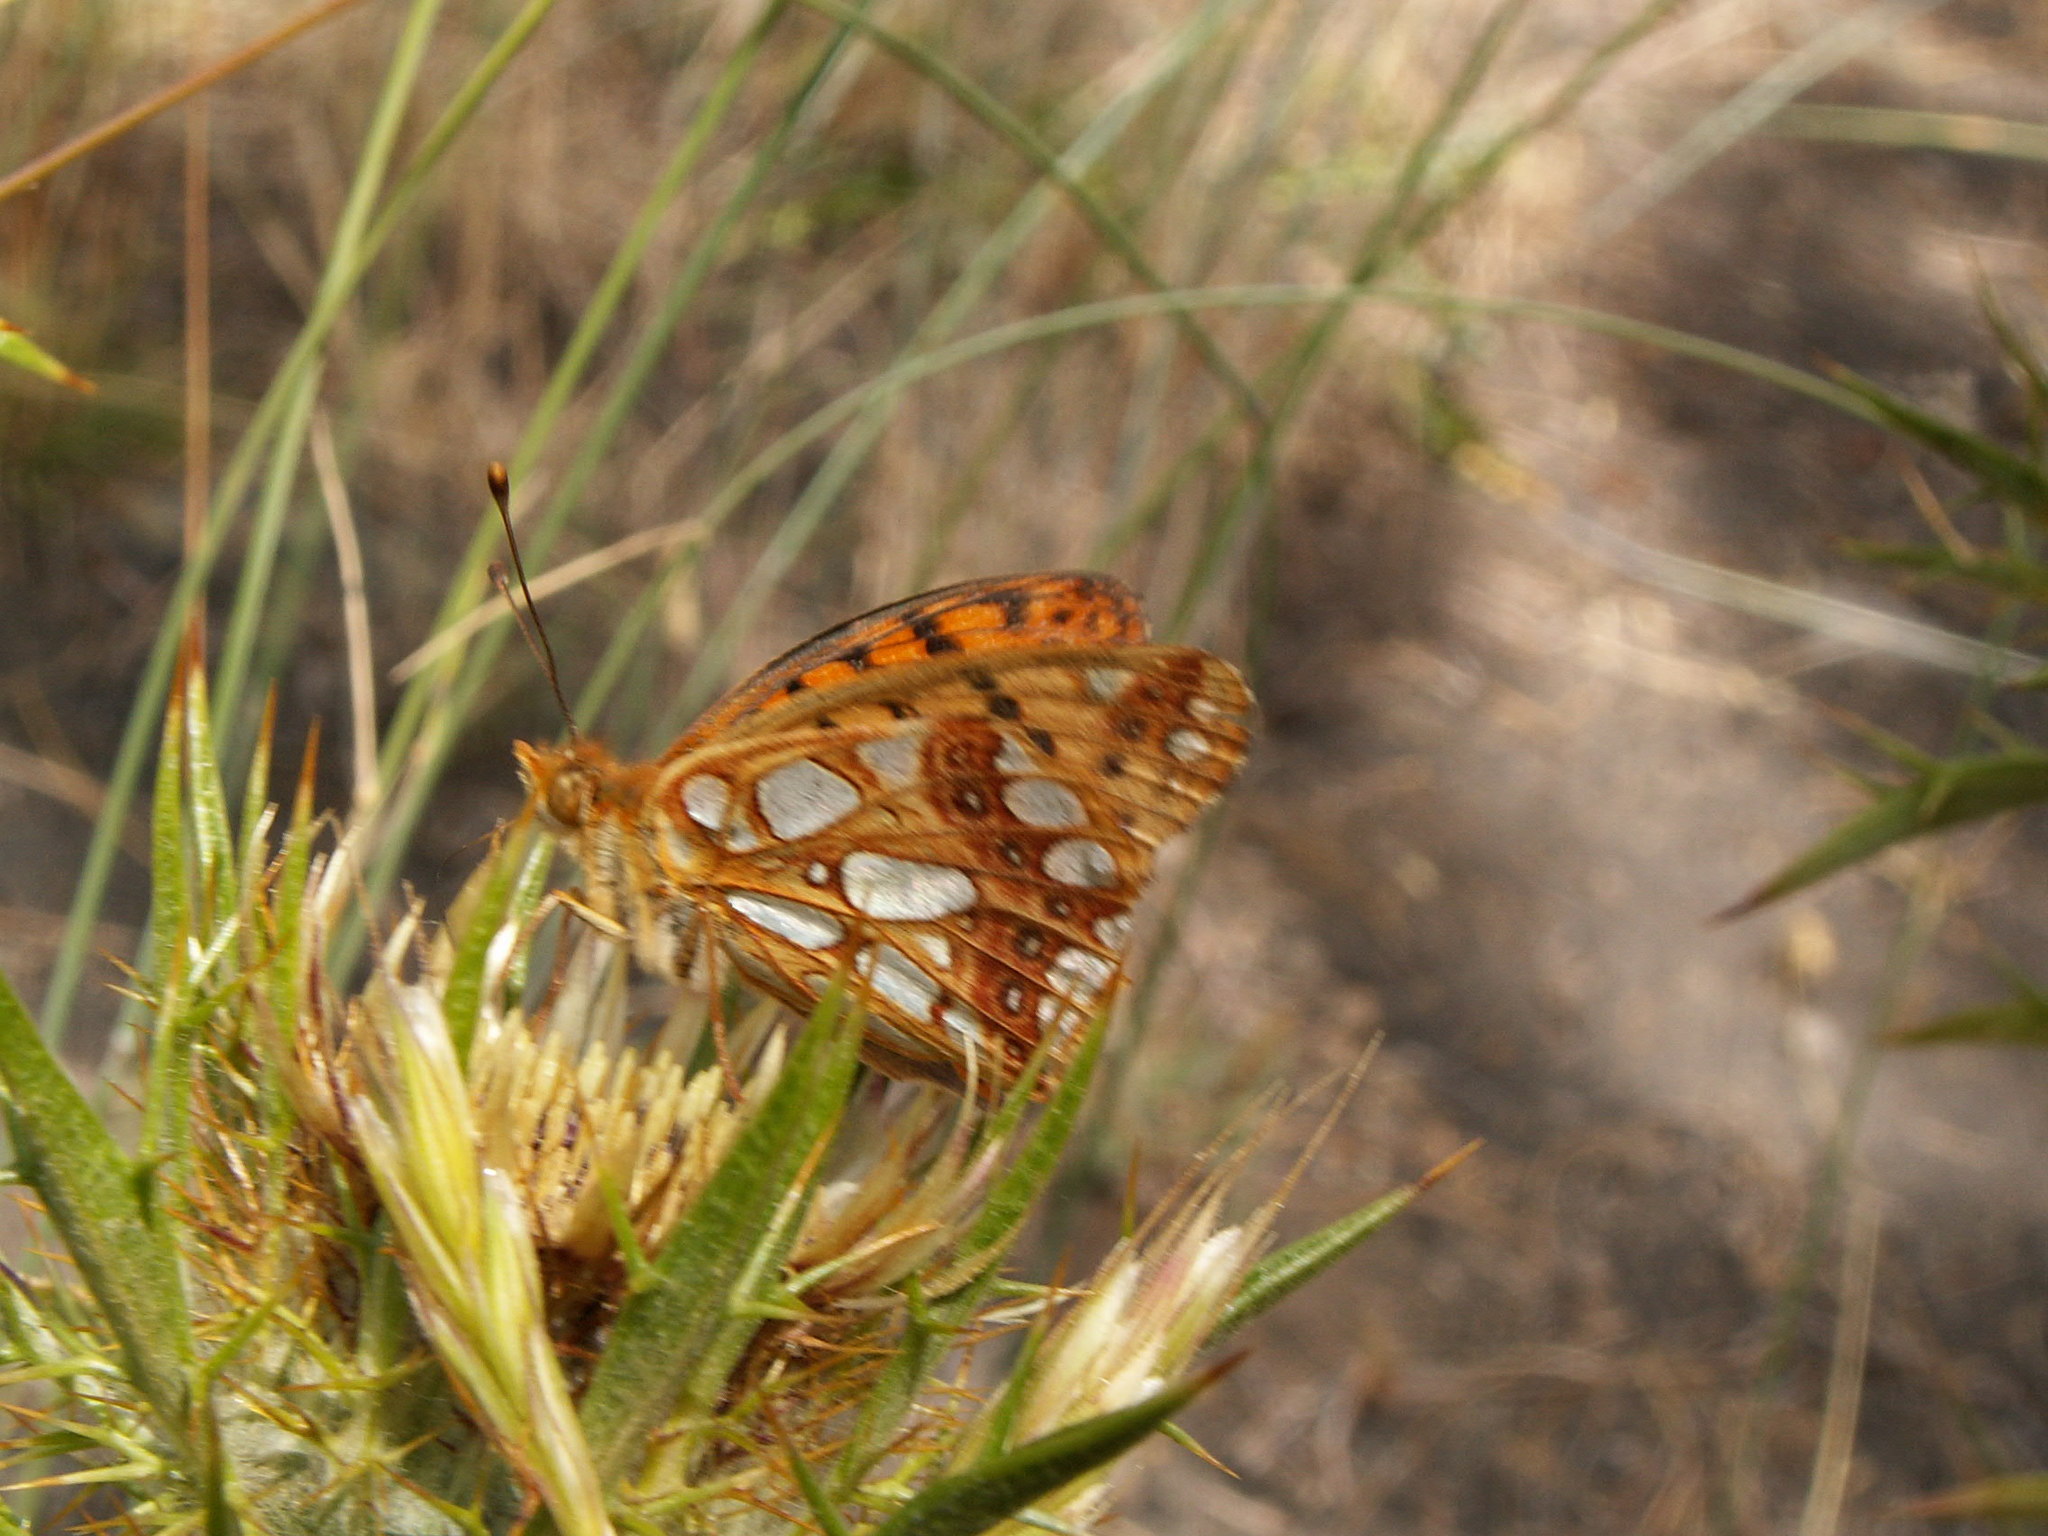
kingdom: Animalia
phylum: Arthropoda
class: Insecta
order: Lepidoptera
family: Nymphalidae
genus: Issoria
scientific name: Issoria lathonia
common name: Queen of spain fritillary
